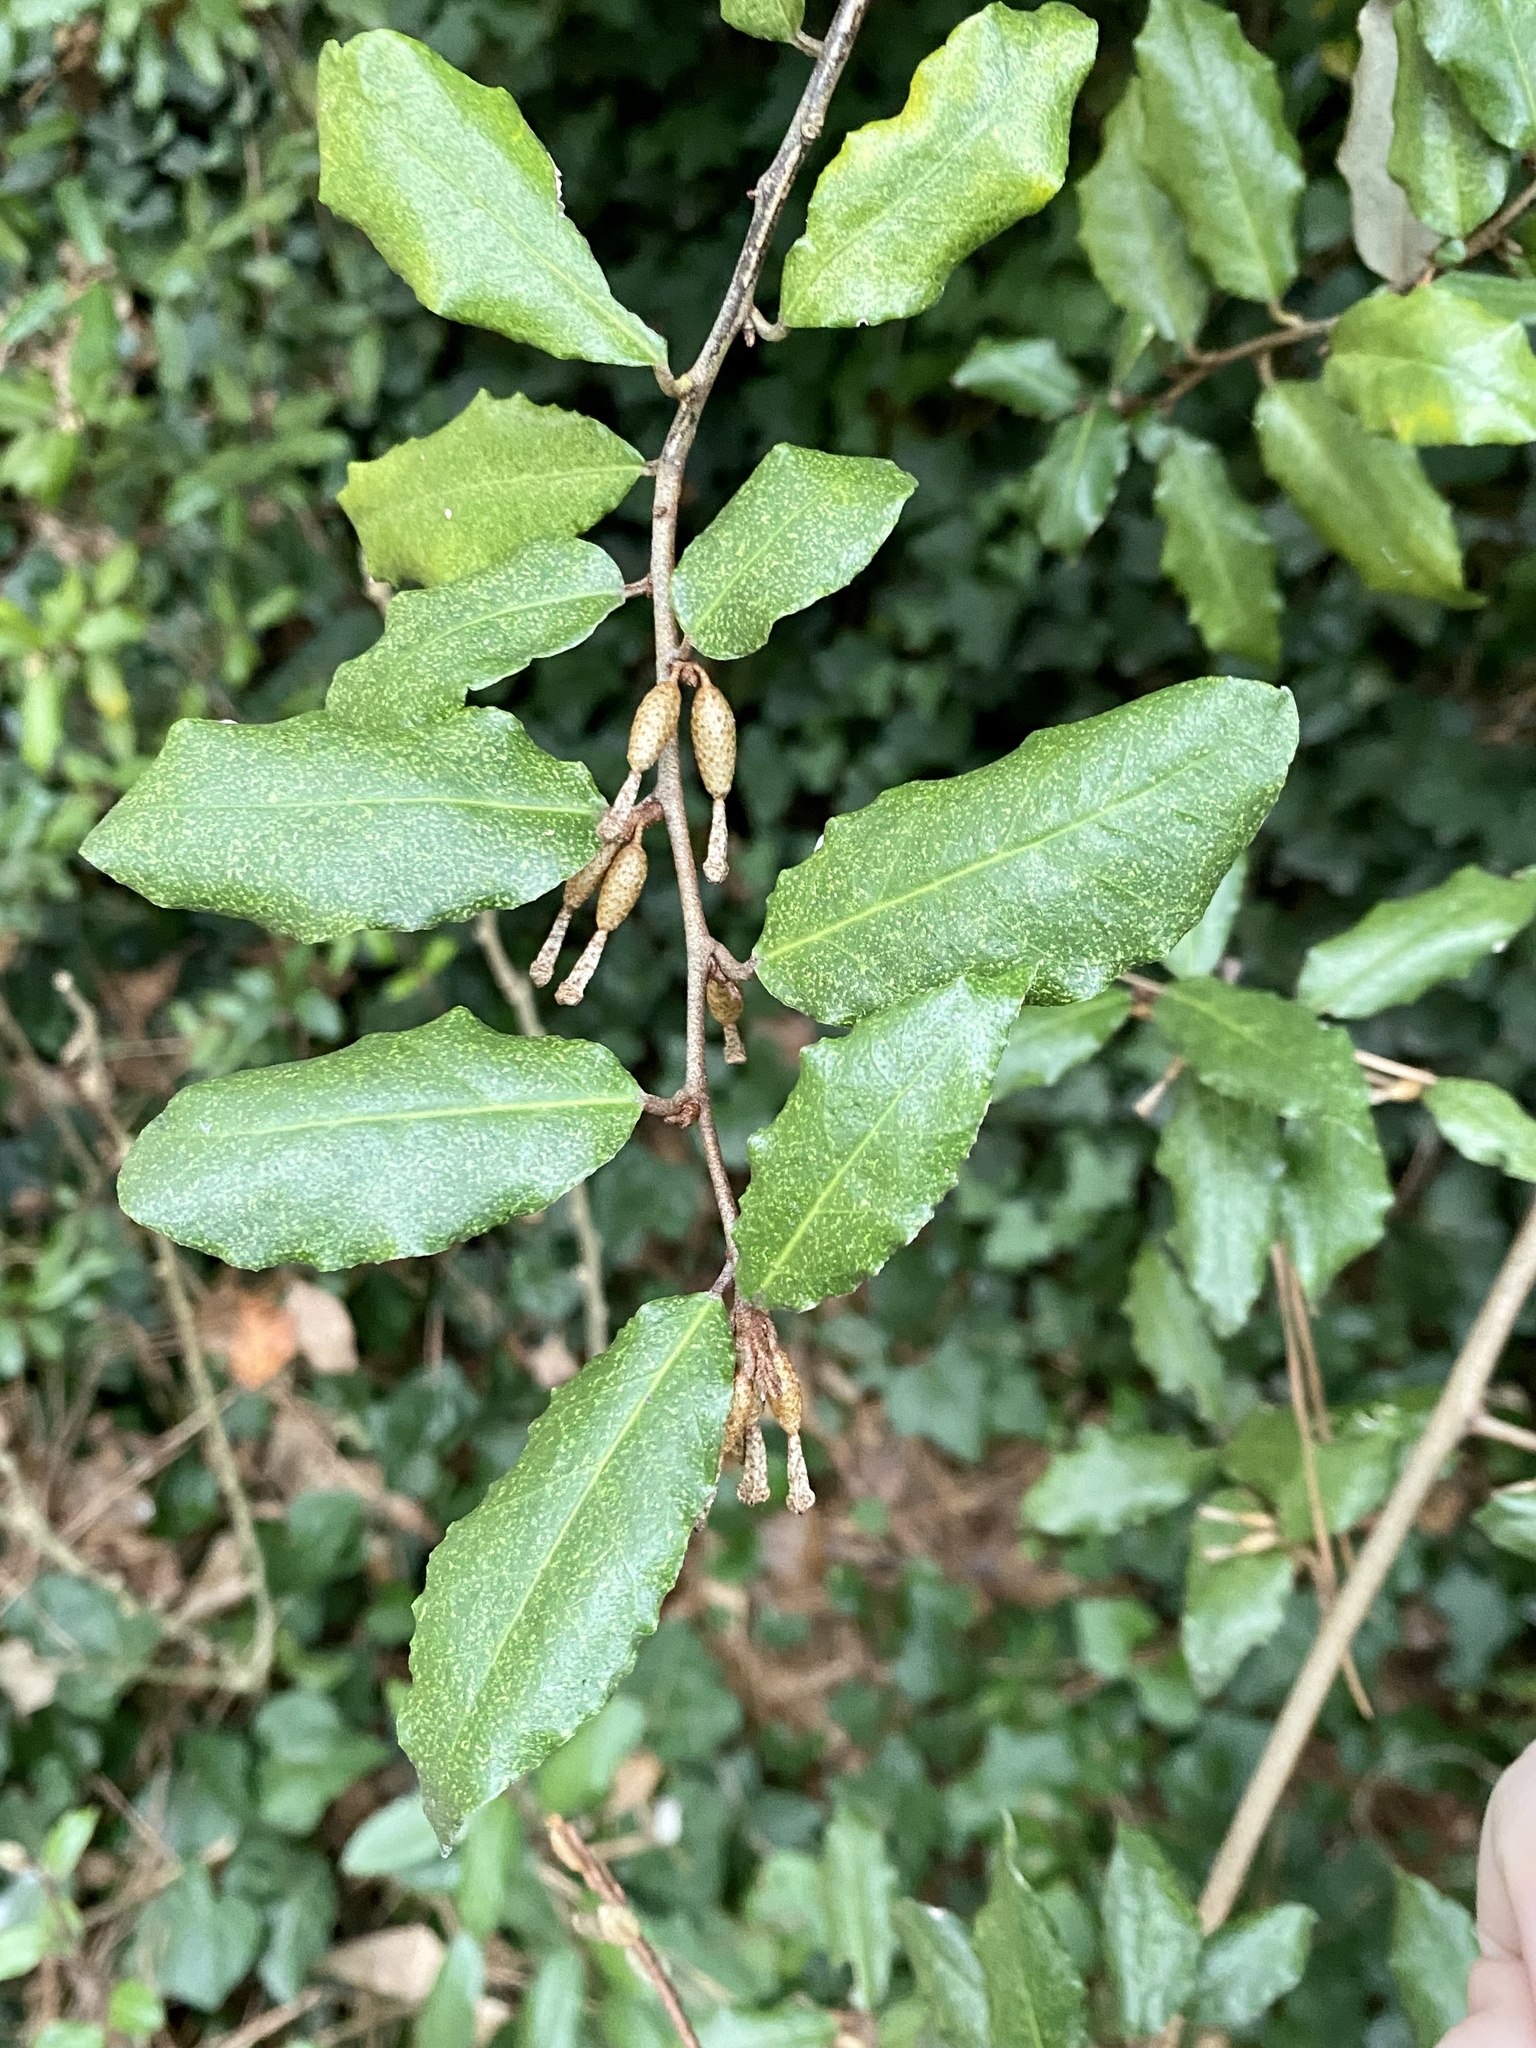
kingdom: Plantae
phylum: Tracheophyta
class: Magnoliopsida
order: Rosales
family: Elaeagnaceae
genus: Elaeagnus
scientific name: Elaeagnus pungens
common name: Spiny oleaster
